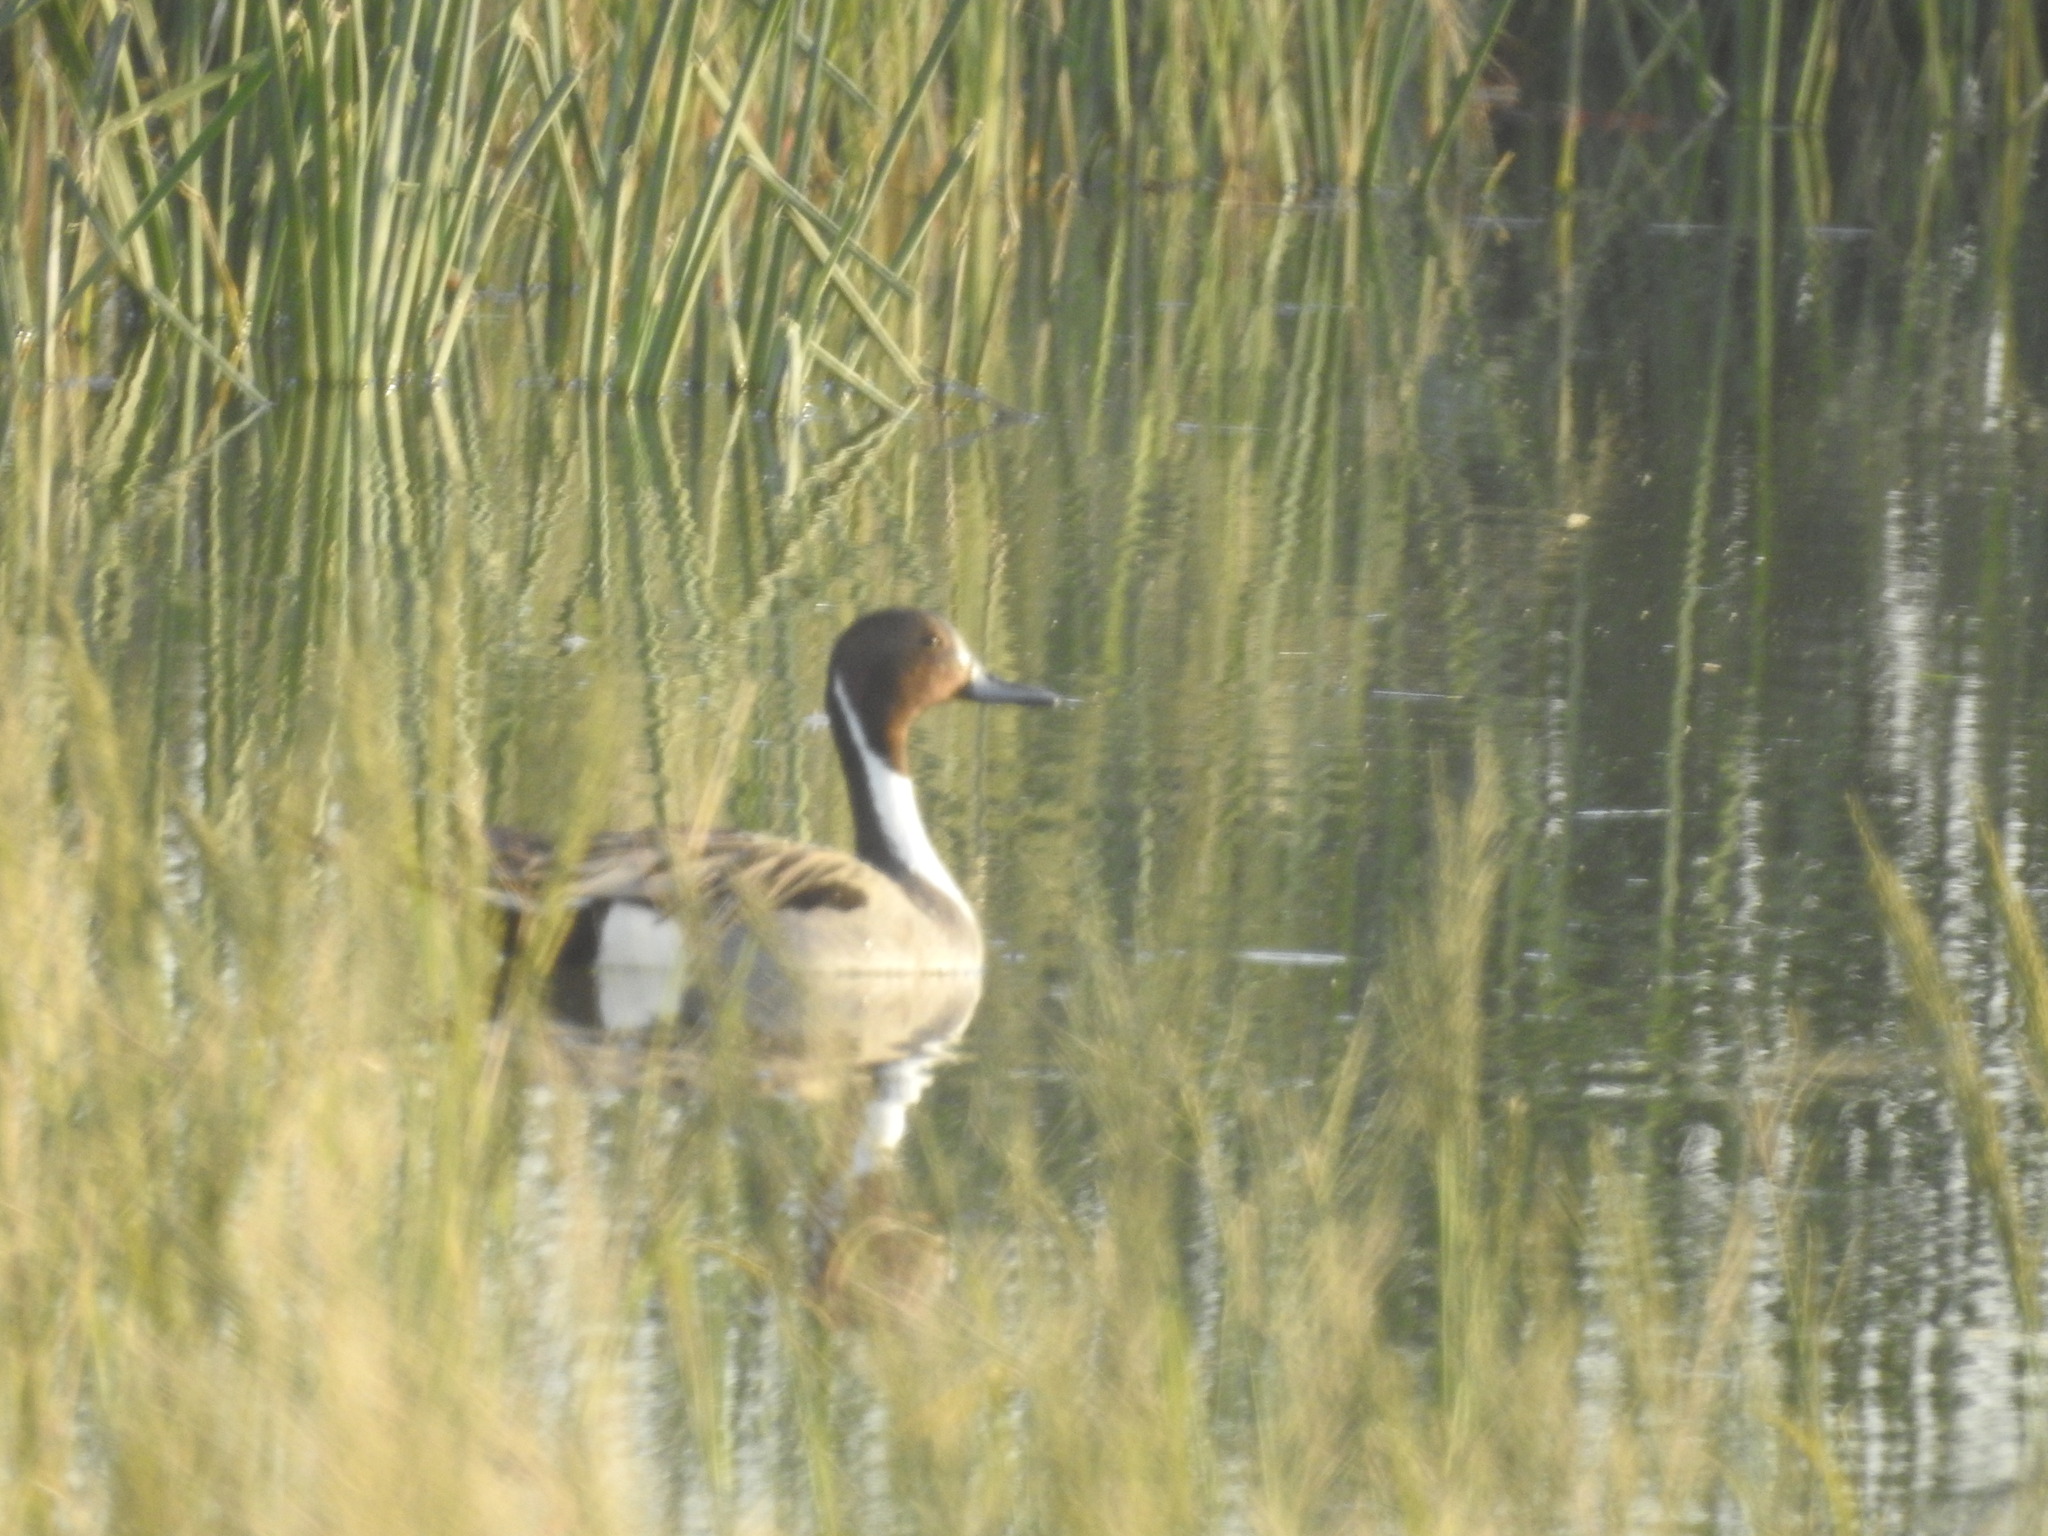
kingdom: Animalia
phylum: Chordata
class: Aves
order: Anseriformes
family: Anatidae
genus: Anas
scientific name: Anas acuta
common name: Northern pintail
